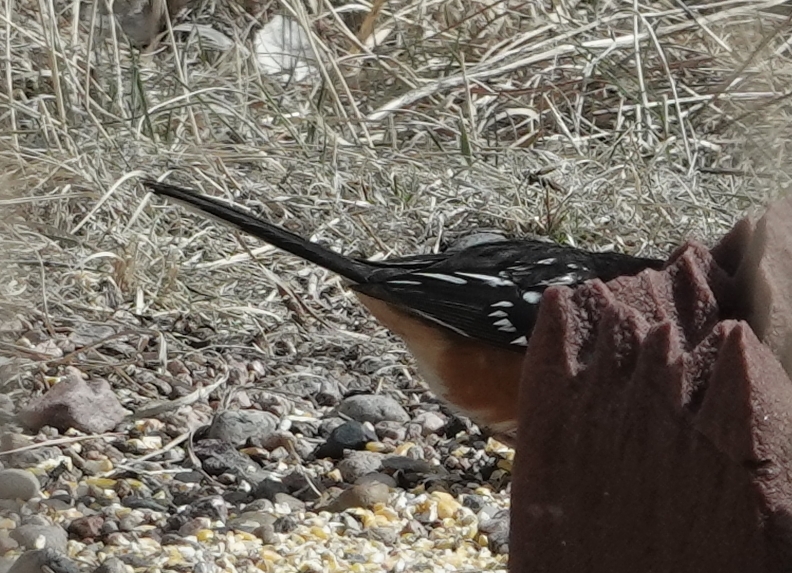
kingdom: Animalia
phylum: Chordata
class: Aves
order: Passeriformes
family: Passerellidae
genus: Pipilo
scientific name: Pipilo maculatus
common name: Spotted towhee
